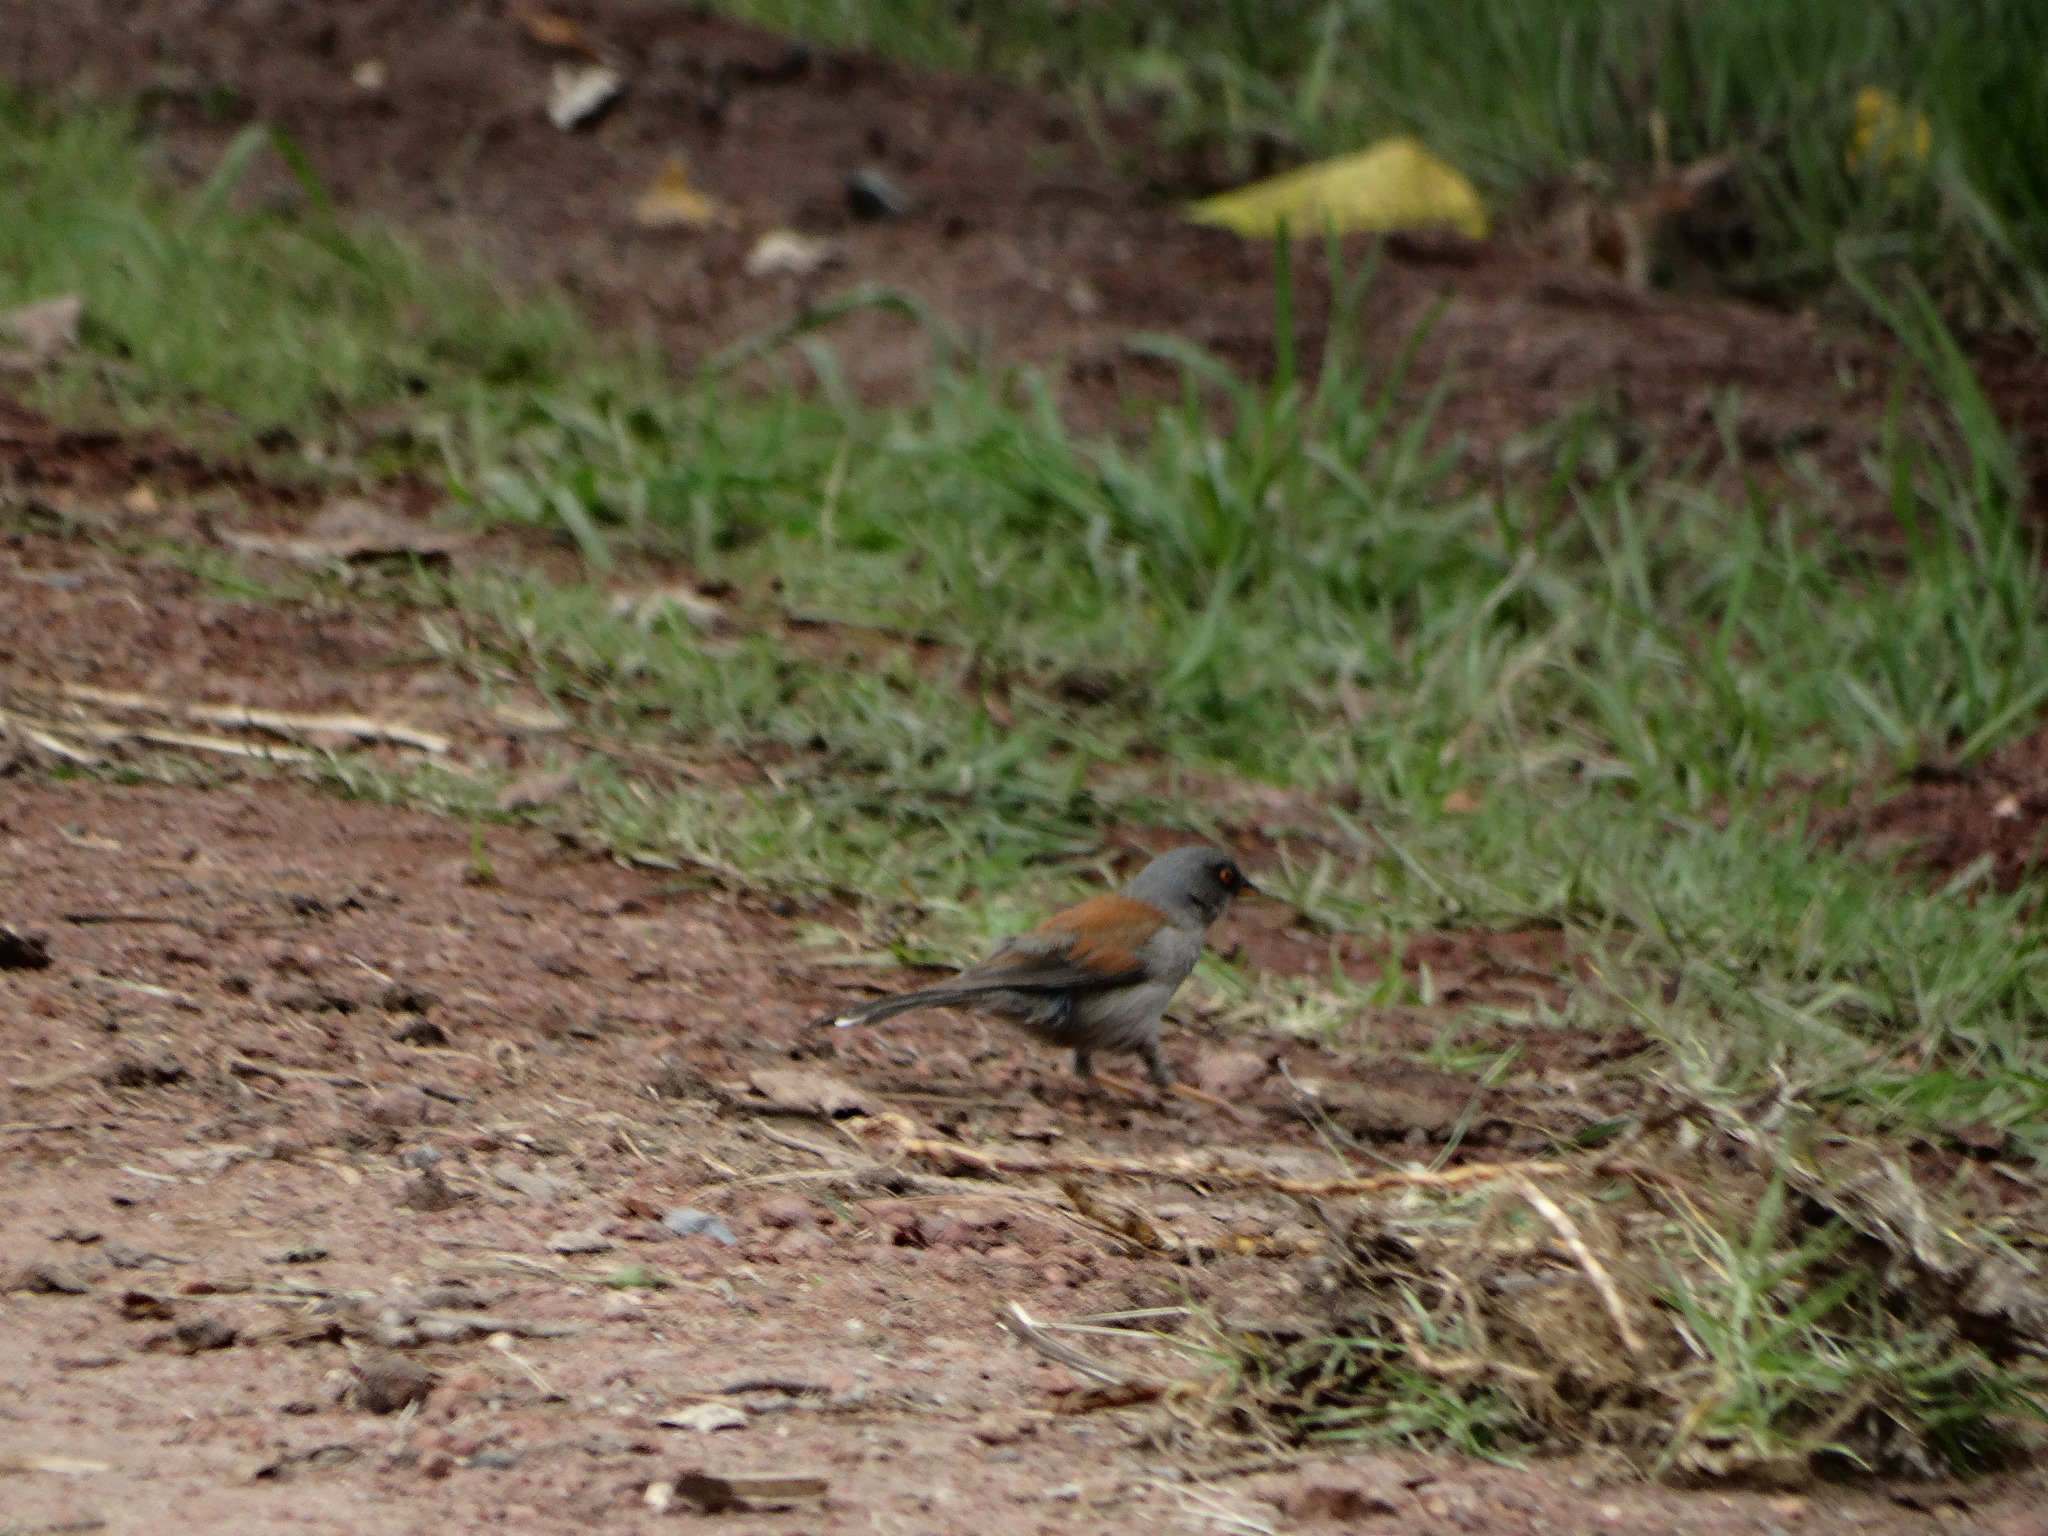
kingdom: Animalia
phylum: Chordata
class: Aves
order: Passeriformes
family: Passerellidae
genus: Junco
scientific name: Junco phaeonotus
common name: Yellow-eyed junco
